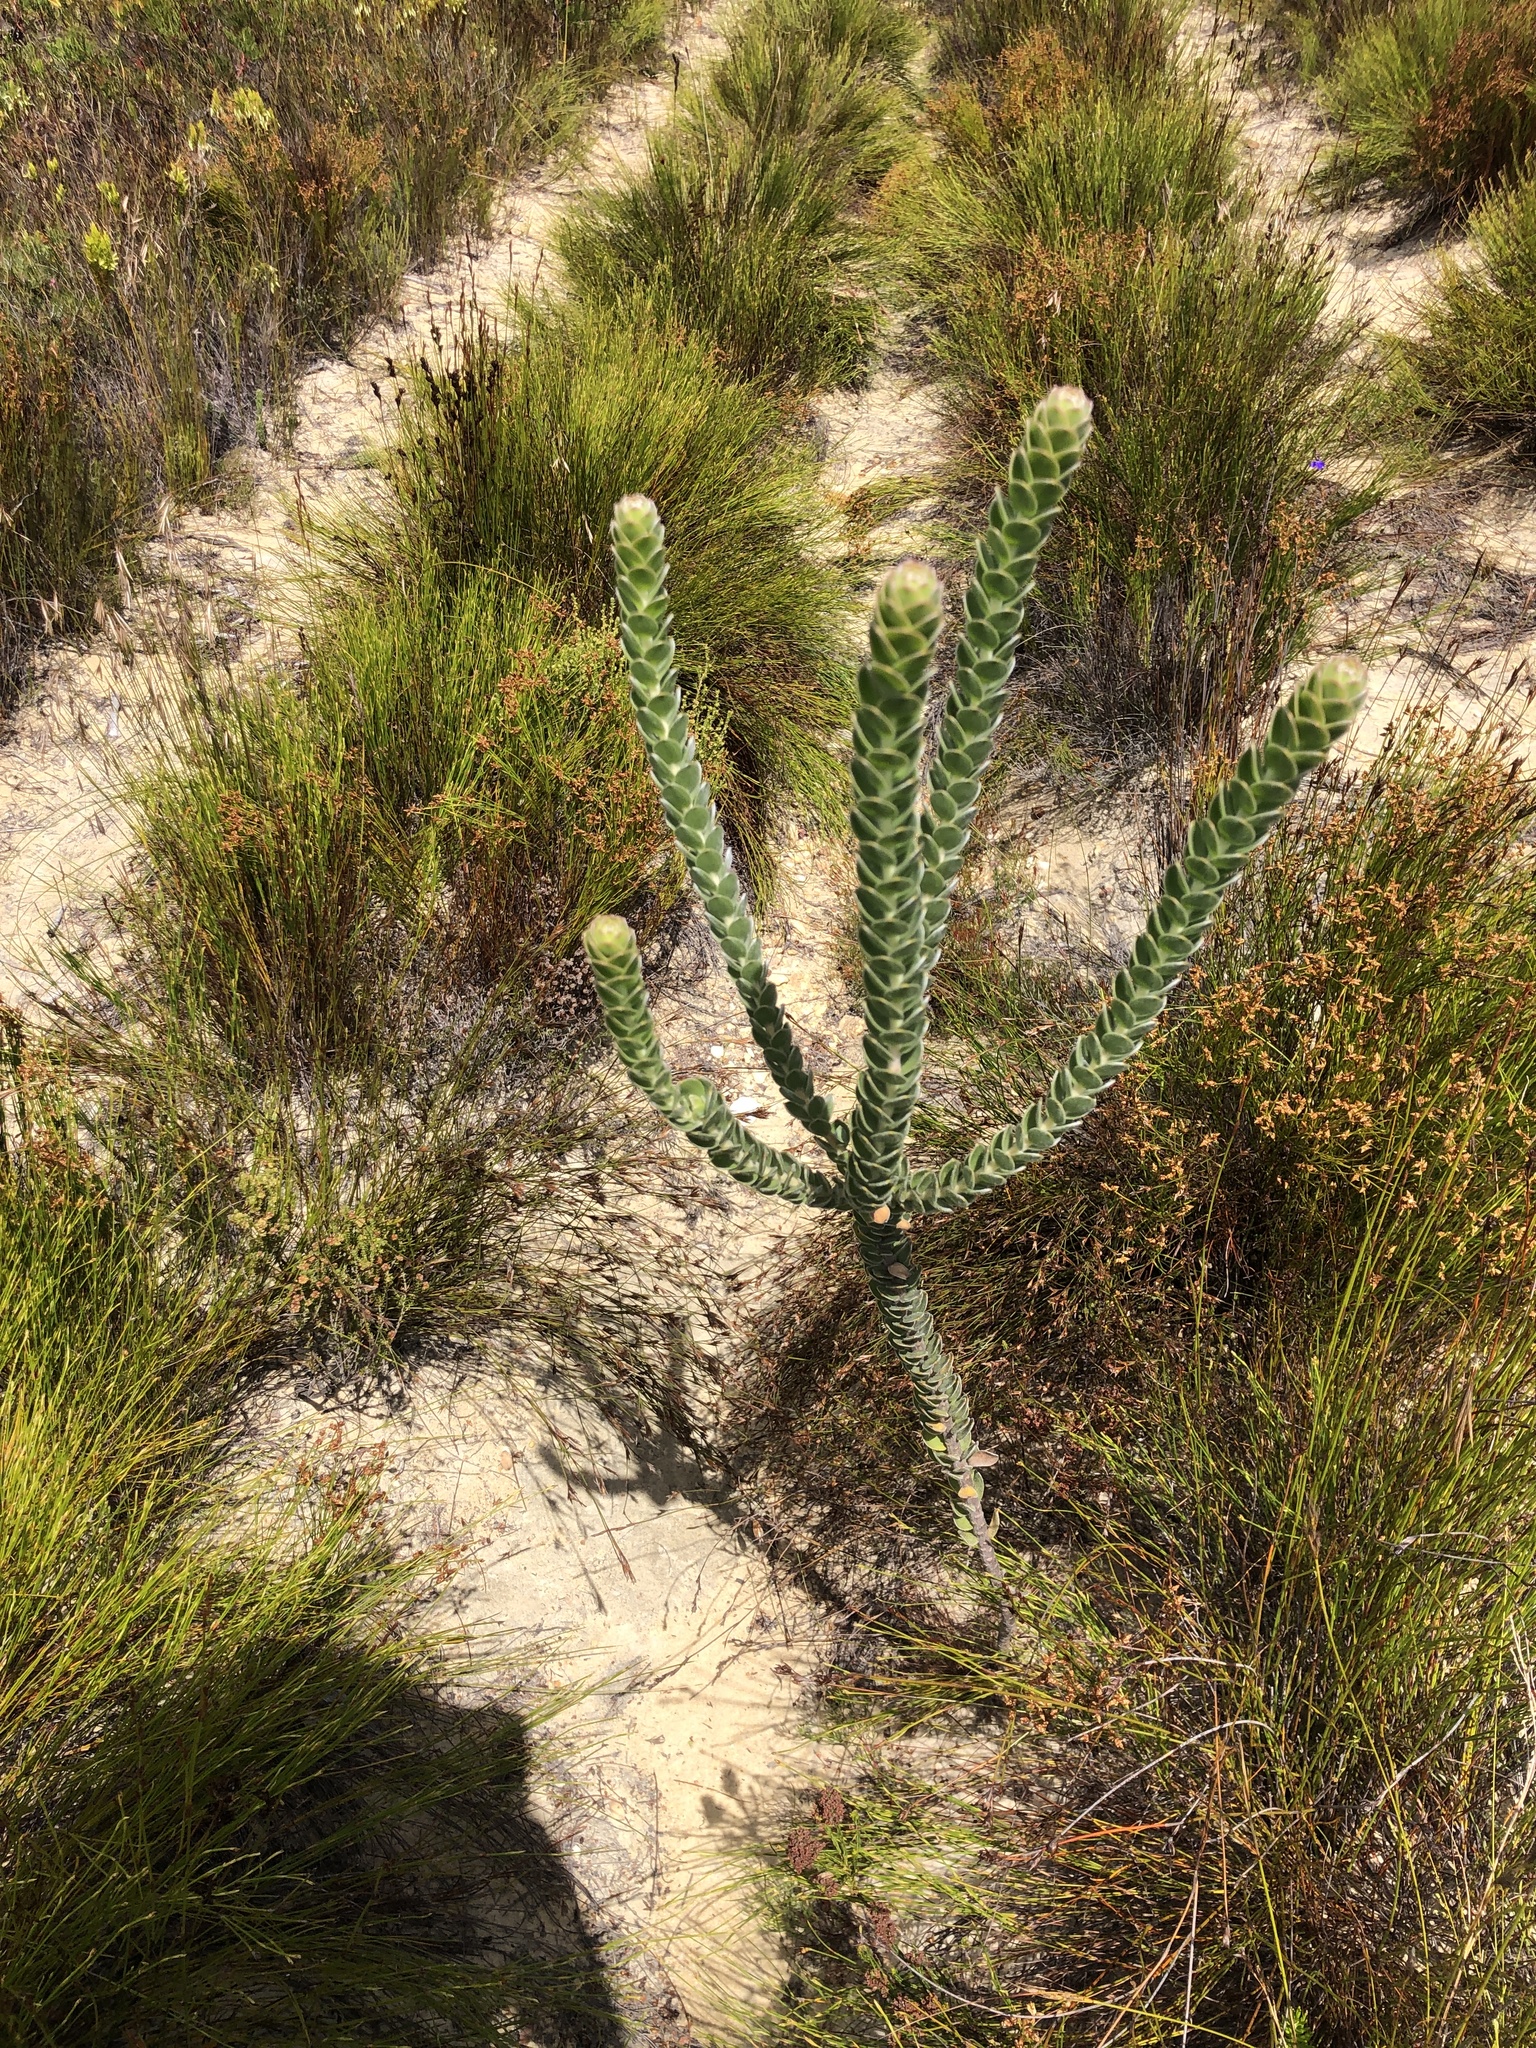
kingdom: Plantae
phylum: Tracheophyta
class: Magnoliopsida
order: Proteales
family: Proteaceae
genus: Leucospermum
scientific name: Leucospermum truncatulum
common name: Oval-leaf pincushion
